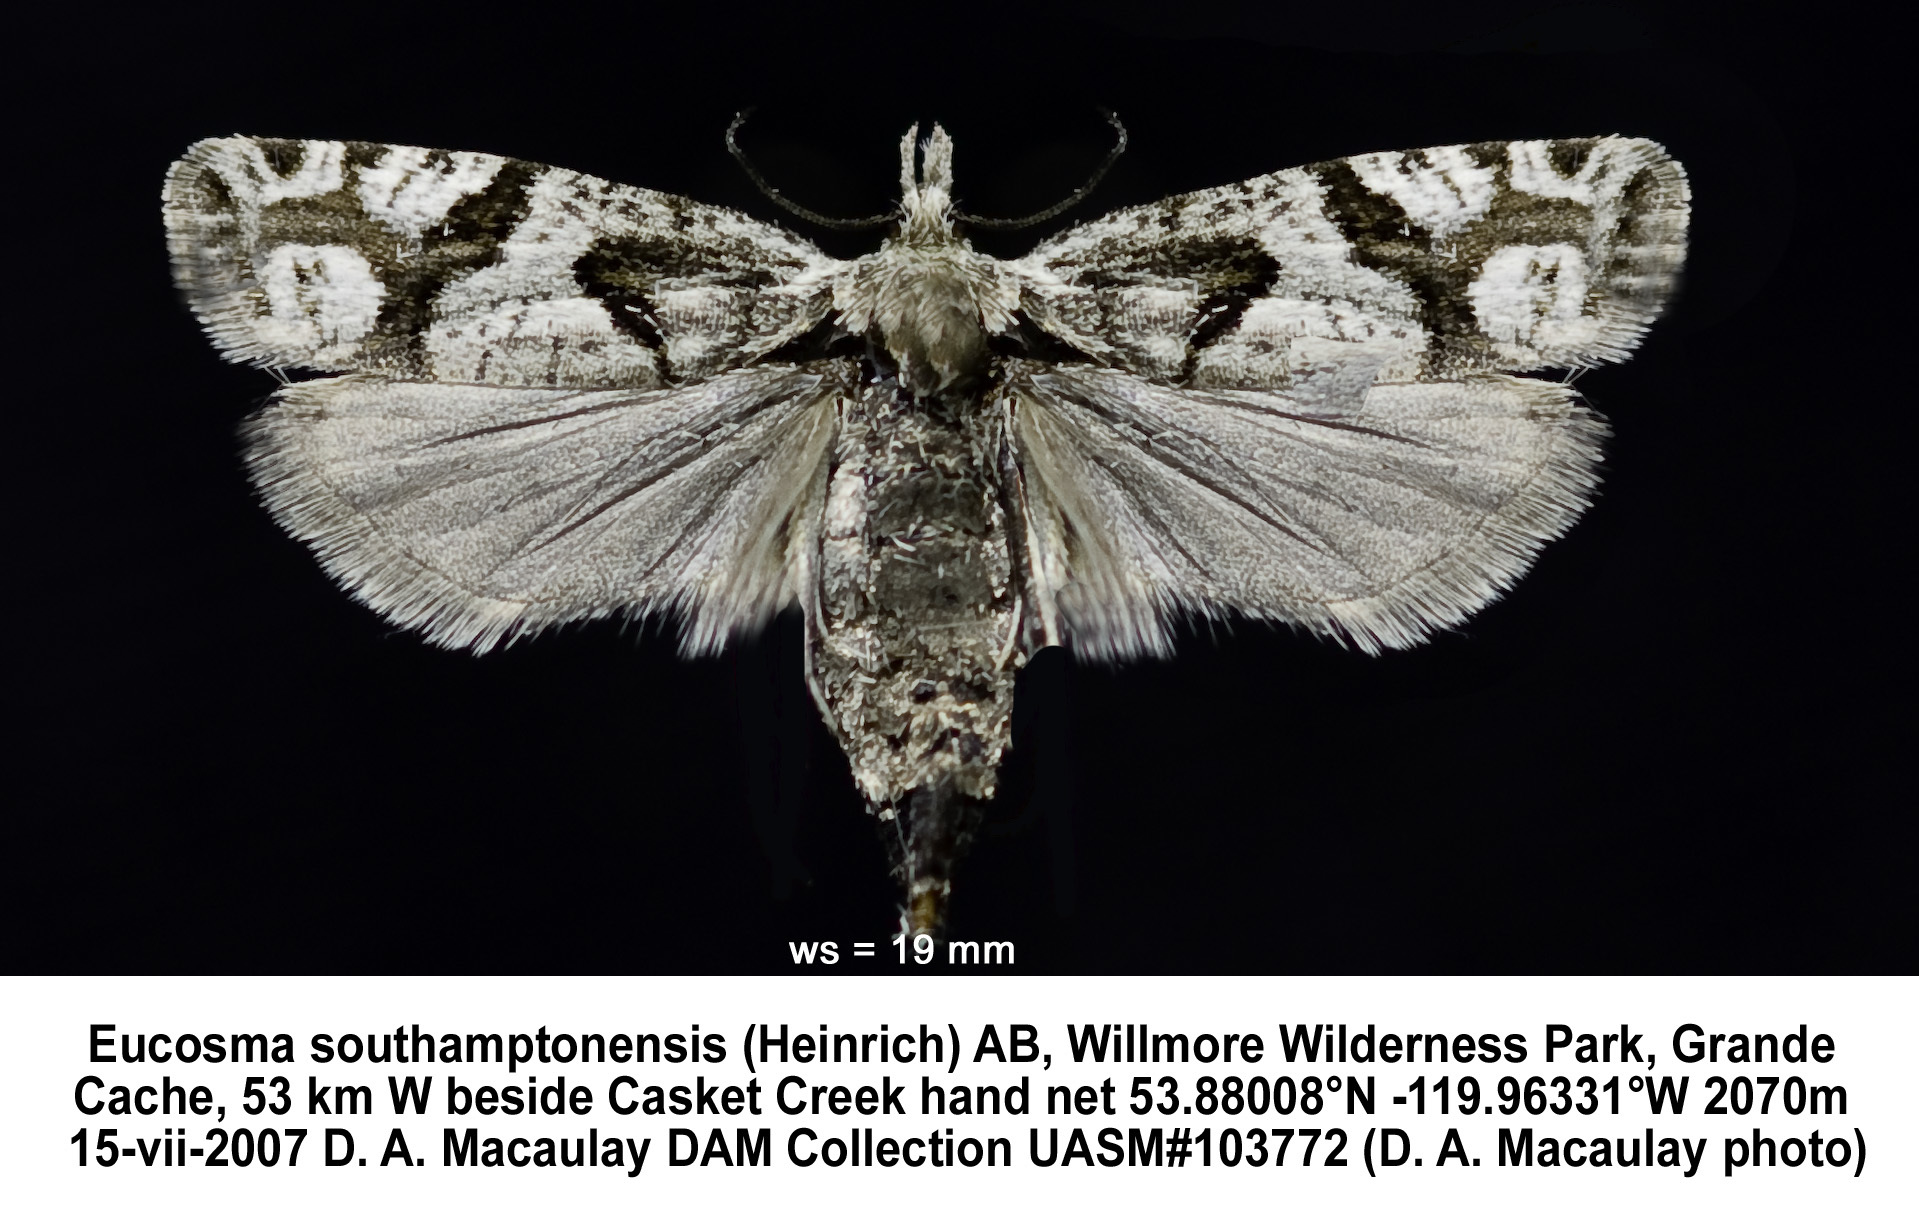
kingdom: Animalia
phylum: Arthropoda
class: Insecta
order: Lepidoptera
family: Tortricidae
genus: Eucosma
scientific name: Eucosma southamptonensis
